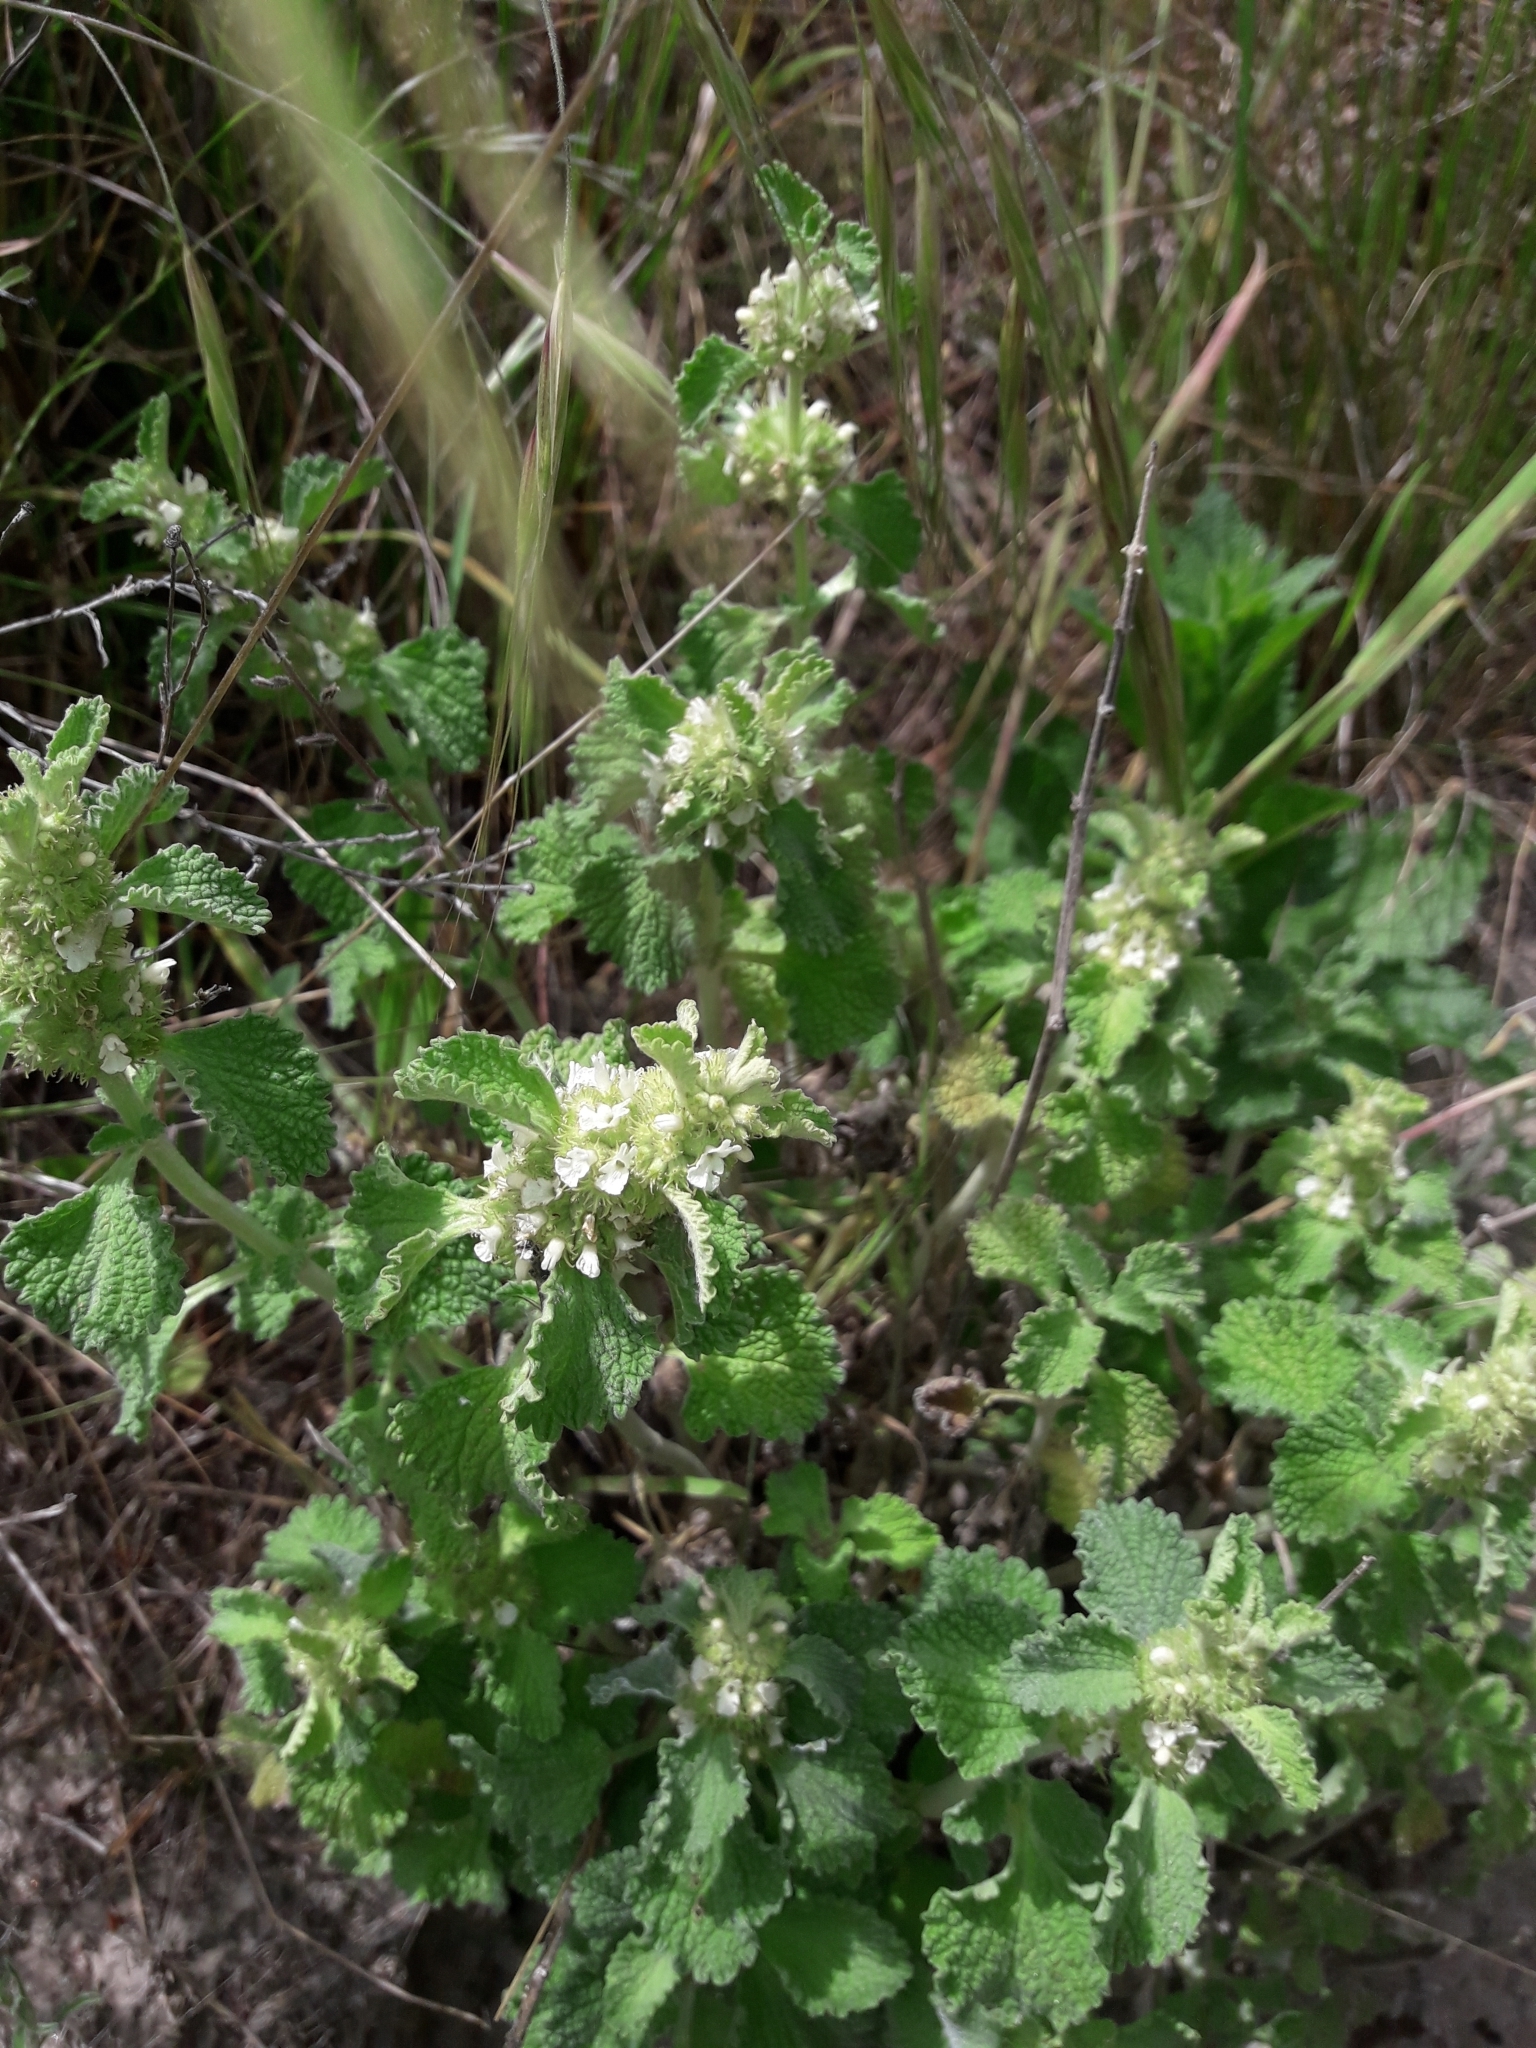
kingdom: Plantae
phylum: Tracheophyta
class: Magnoliopsida
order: Lamiales
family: Lamiaceae
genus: Marrubium
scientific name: Marrubium vulgare
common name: Horehound
